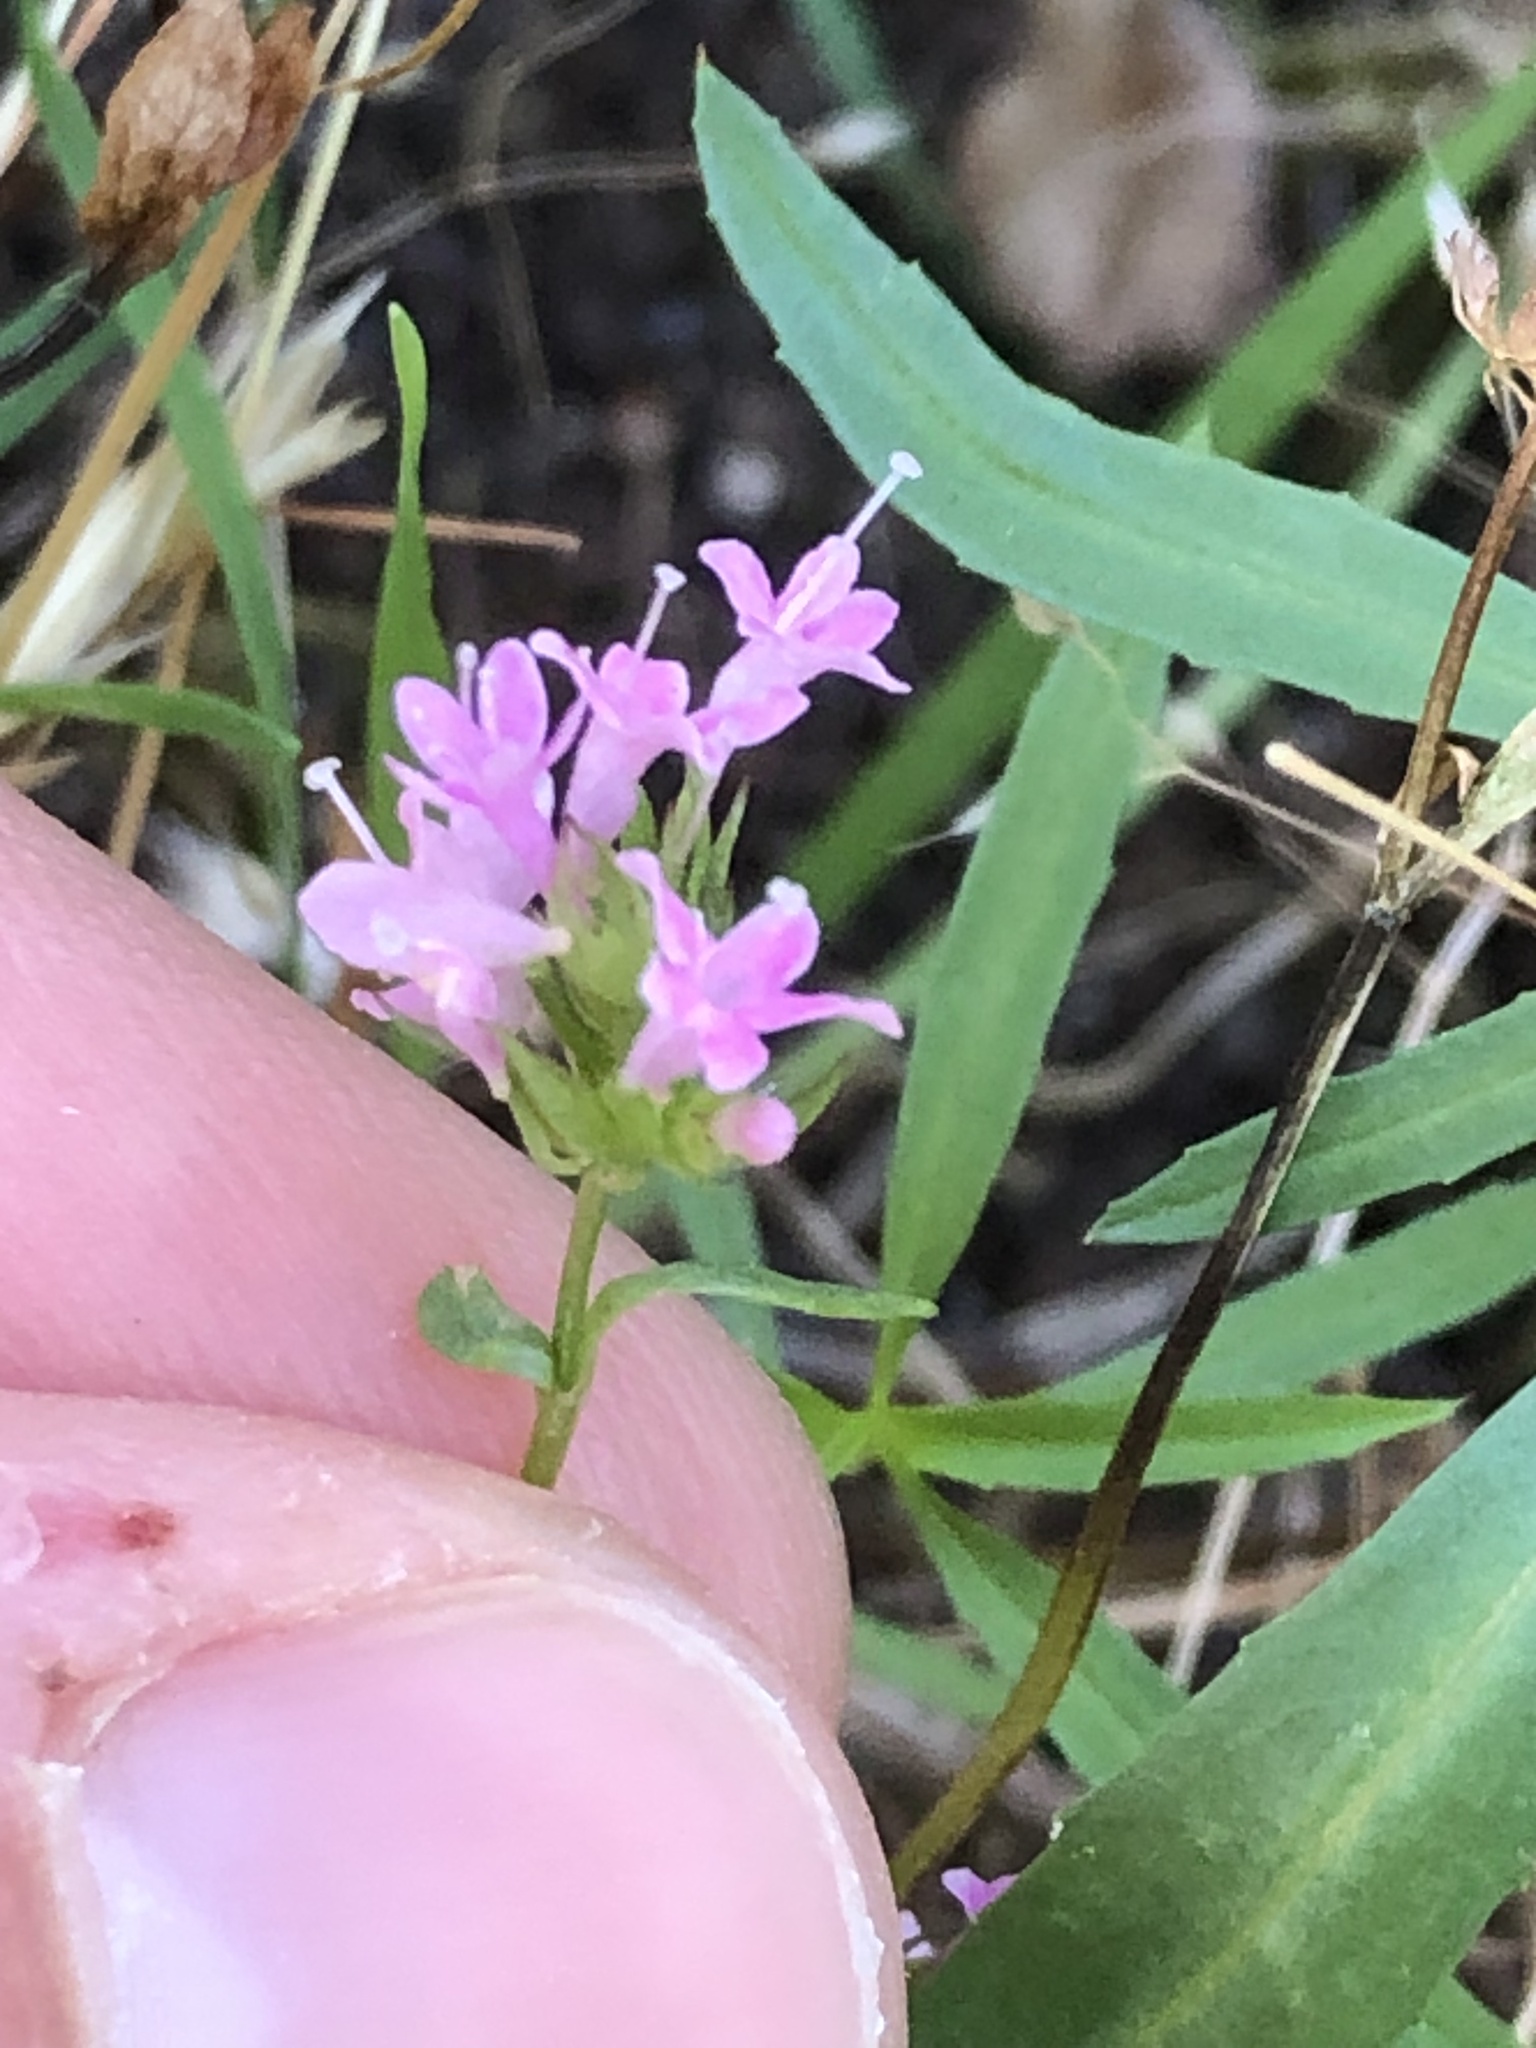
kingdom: Plantae
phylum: Tracheophyta
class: Magnoliopsida
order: Dipsacales
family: Caprifoliaceae
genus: Plectritis
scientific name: Plectritis congesta
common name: Pink plectritis
